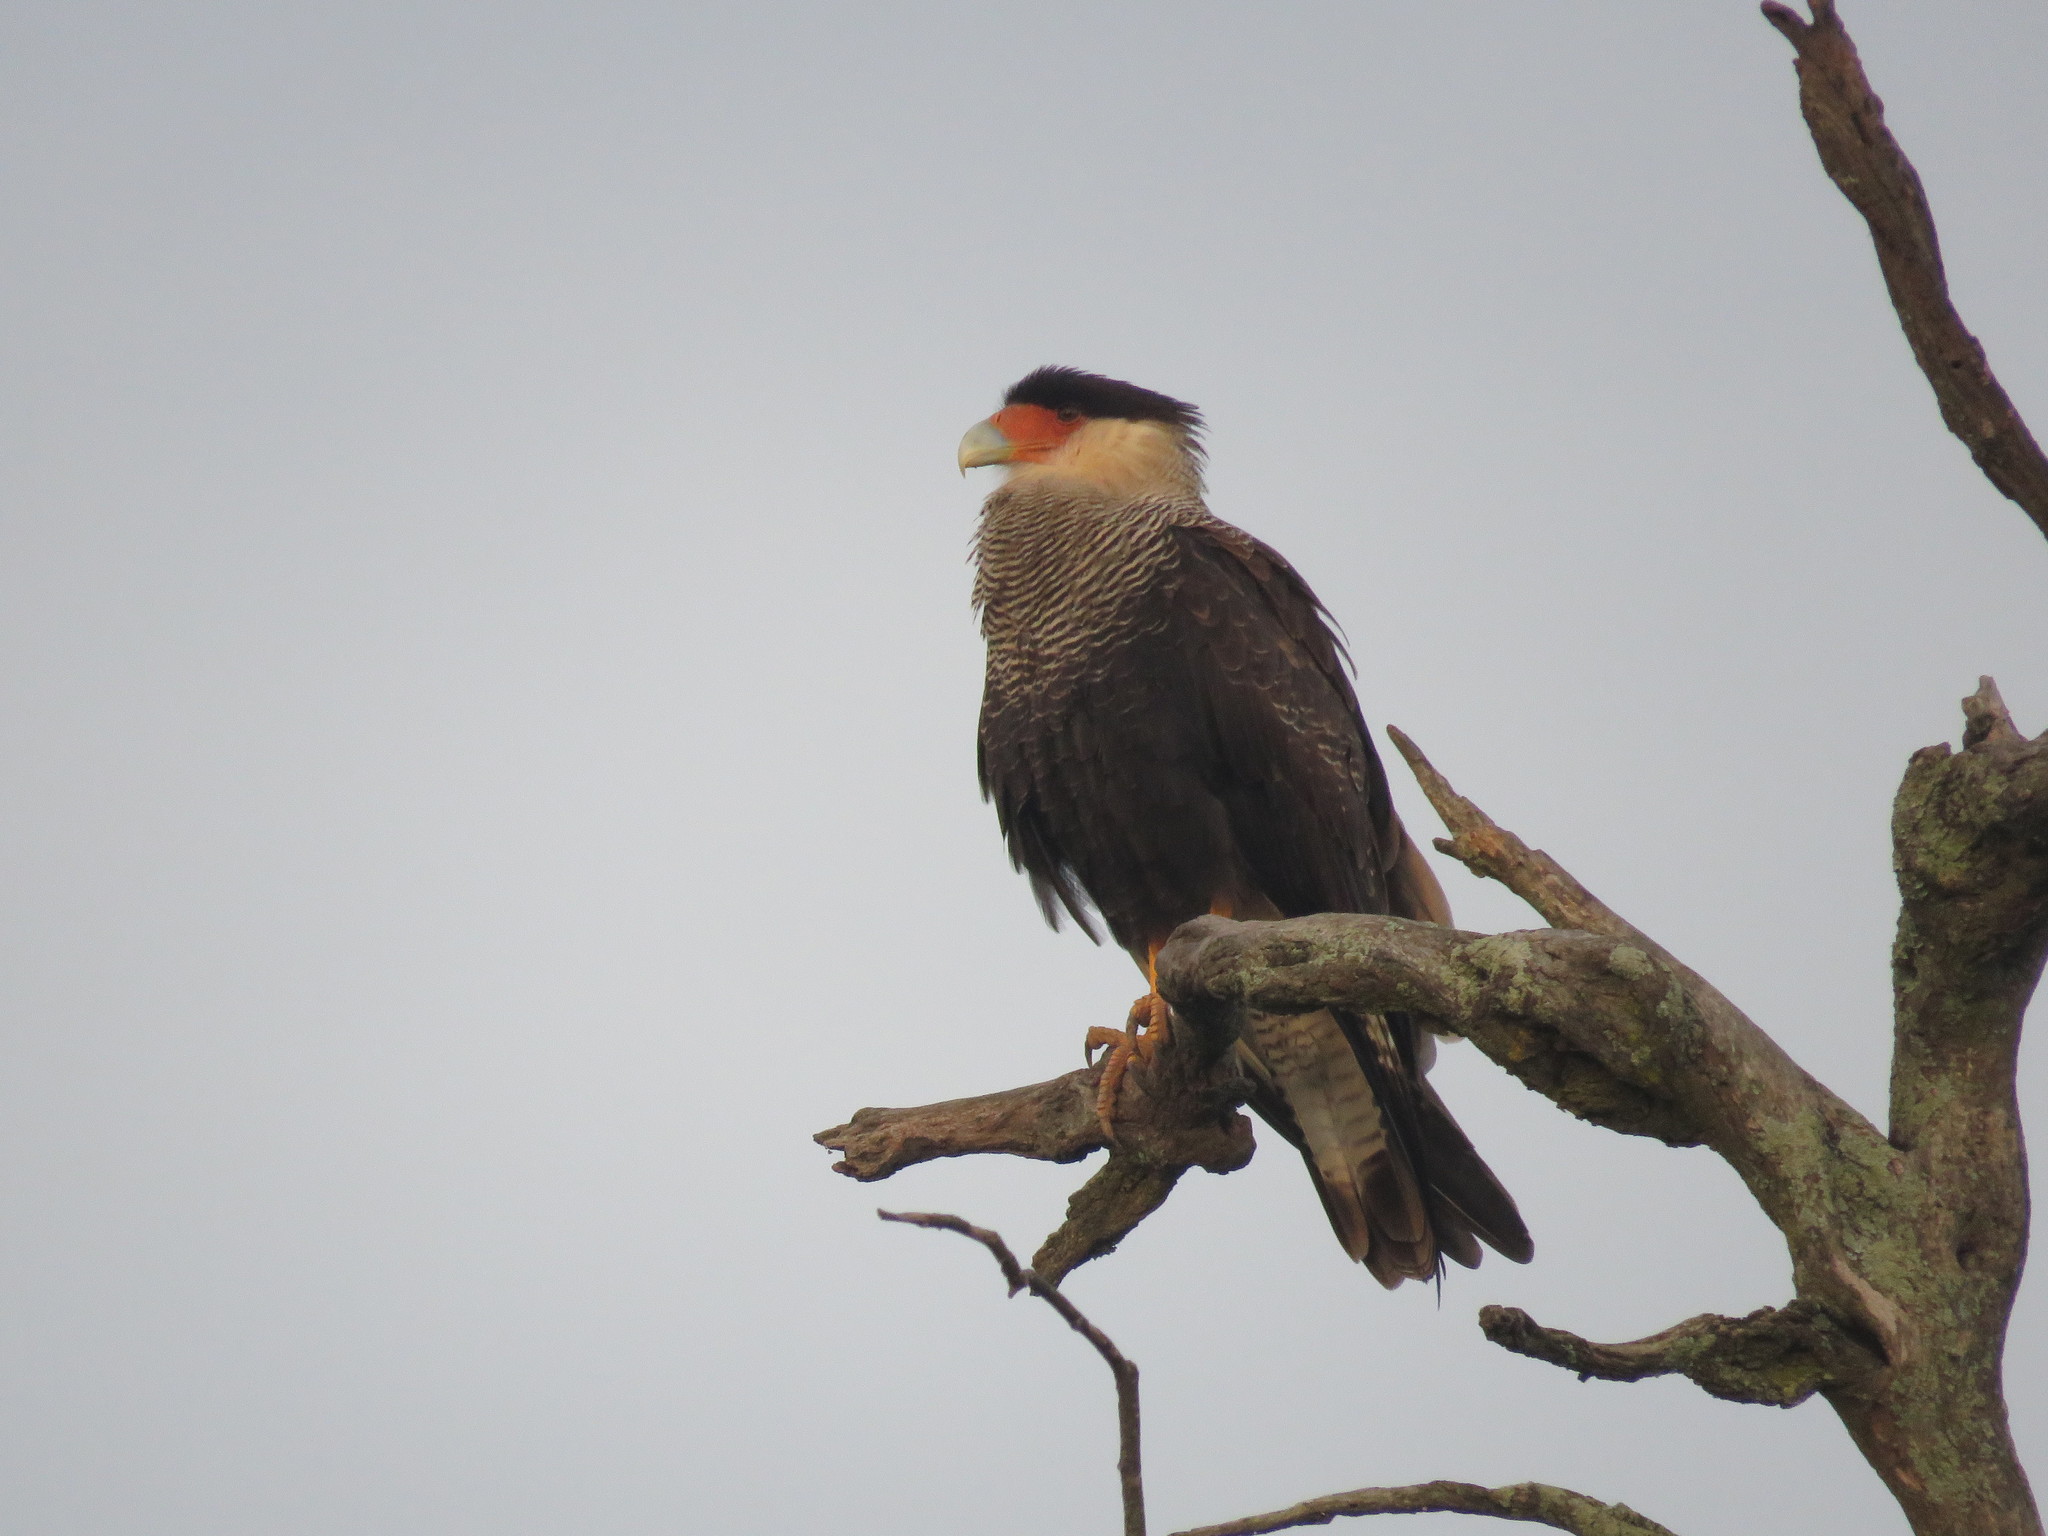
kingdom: Animalia
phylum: Chordata
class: Aves
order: Falconiformes
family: Falconidae
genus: Caracara
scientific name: Caracara plancus
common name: Southern caracara
